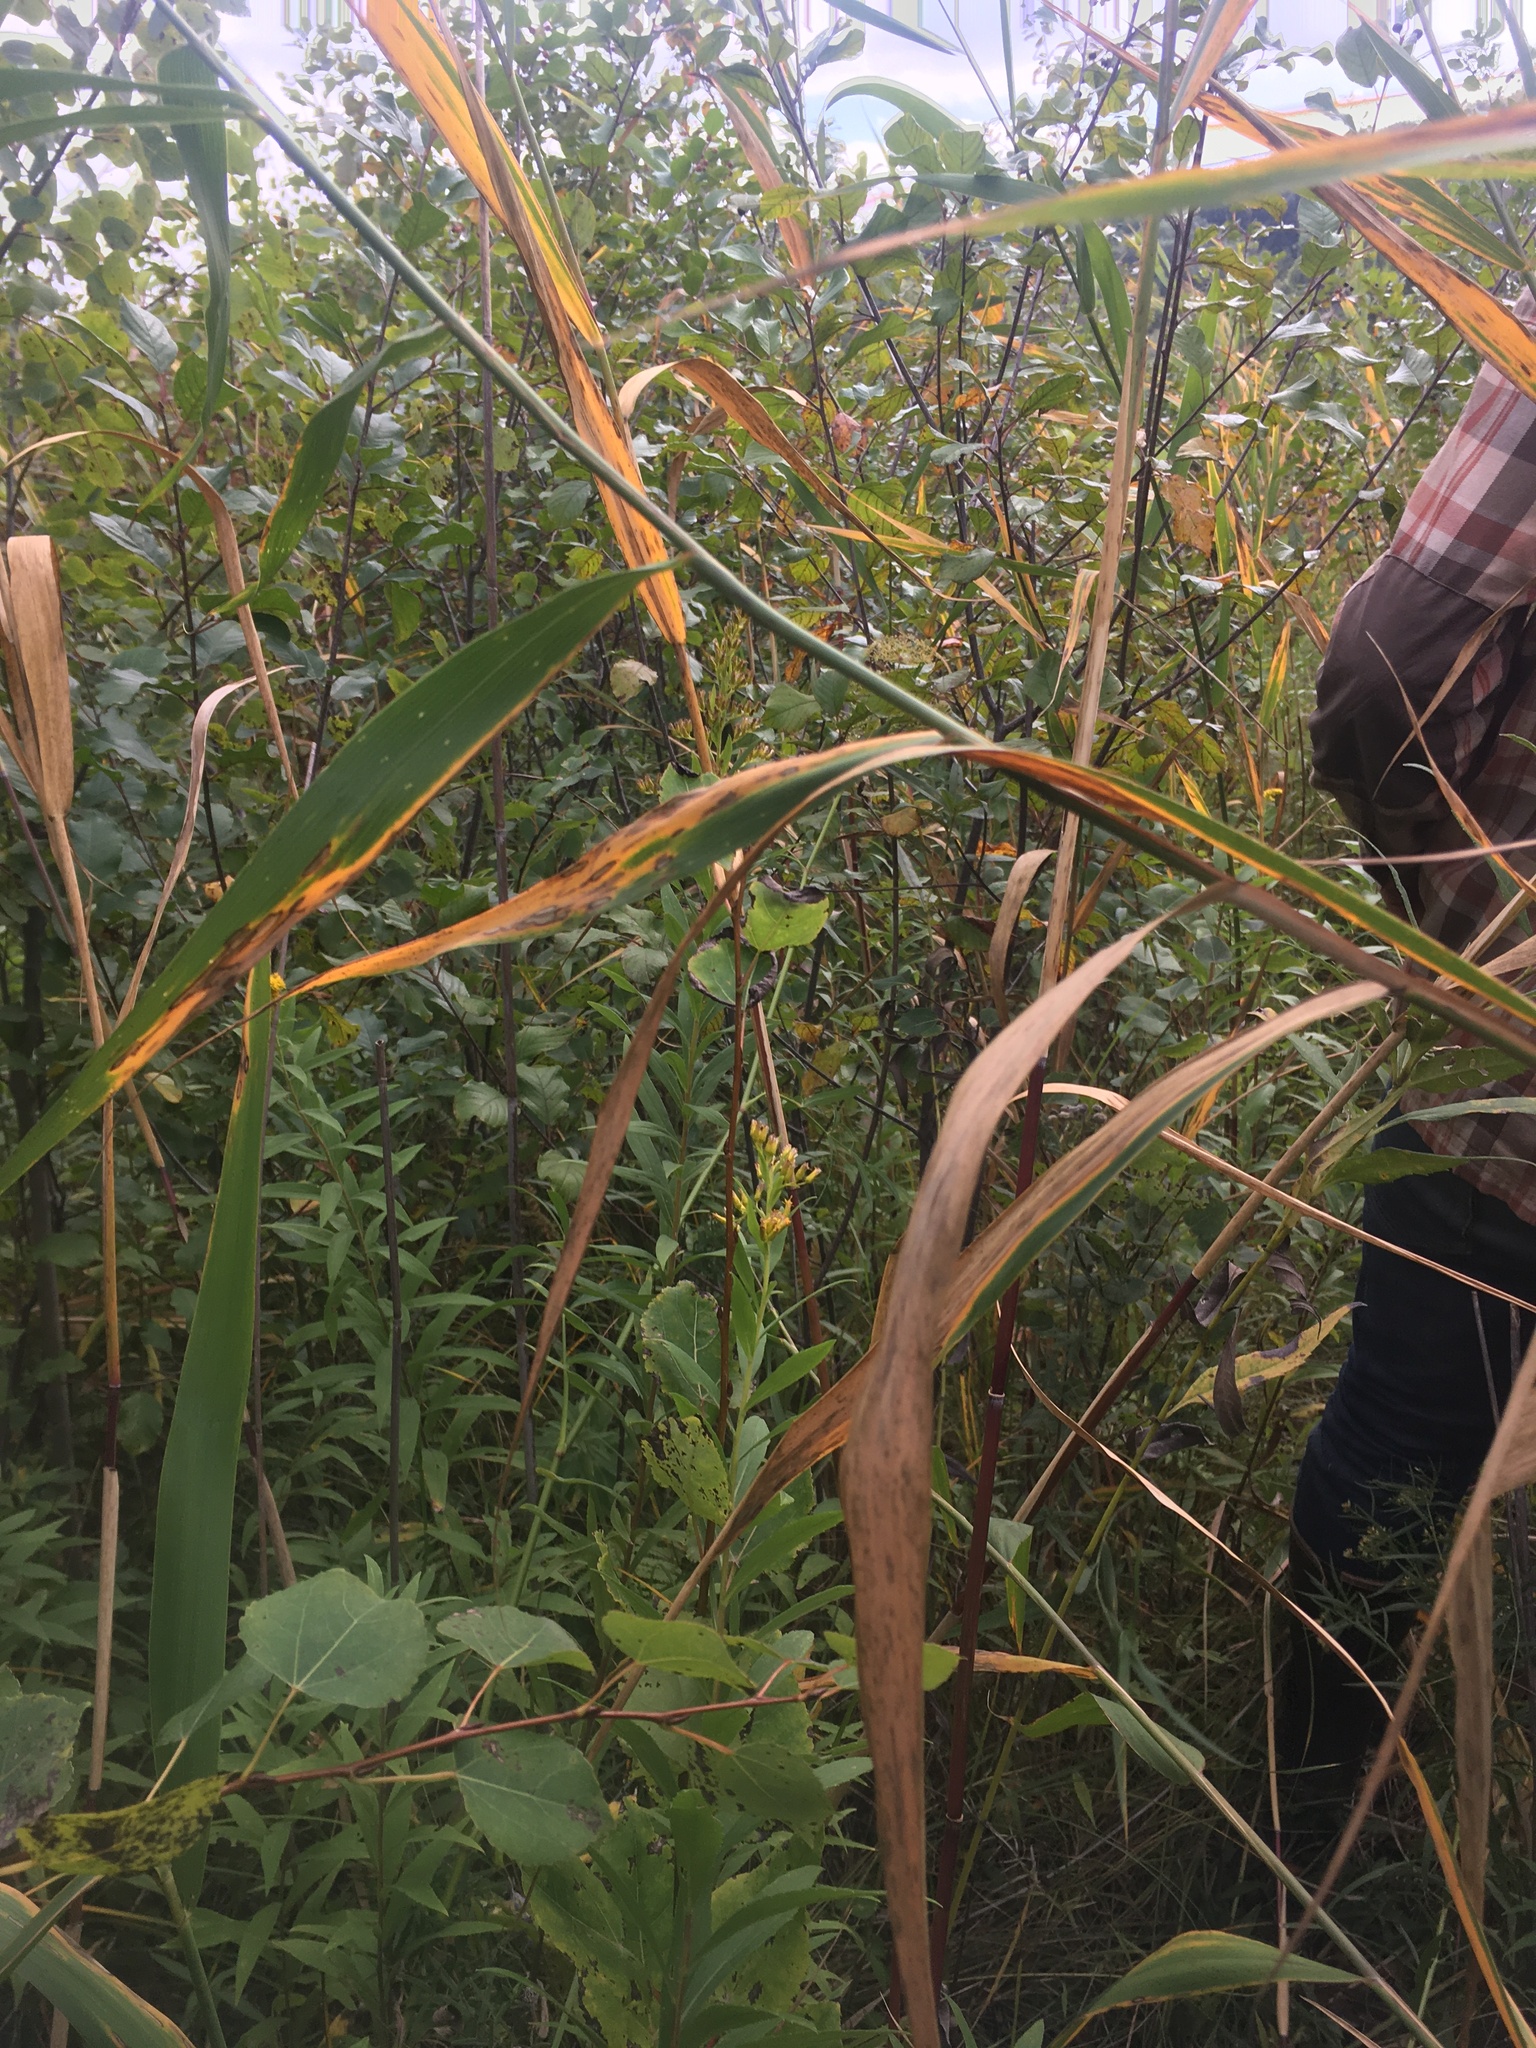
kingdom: Plantae
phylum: Tracheophyta
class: Liliopsida
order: Poales
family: Poaceae
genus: Phragmites
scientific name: Phragmites australis
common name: Common reed
